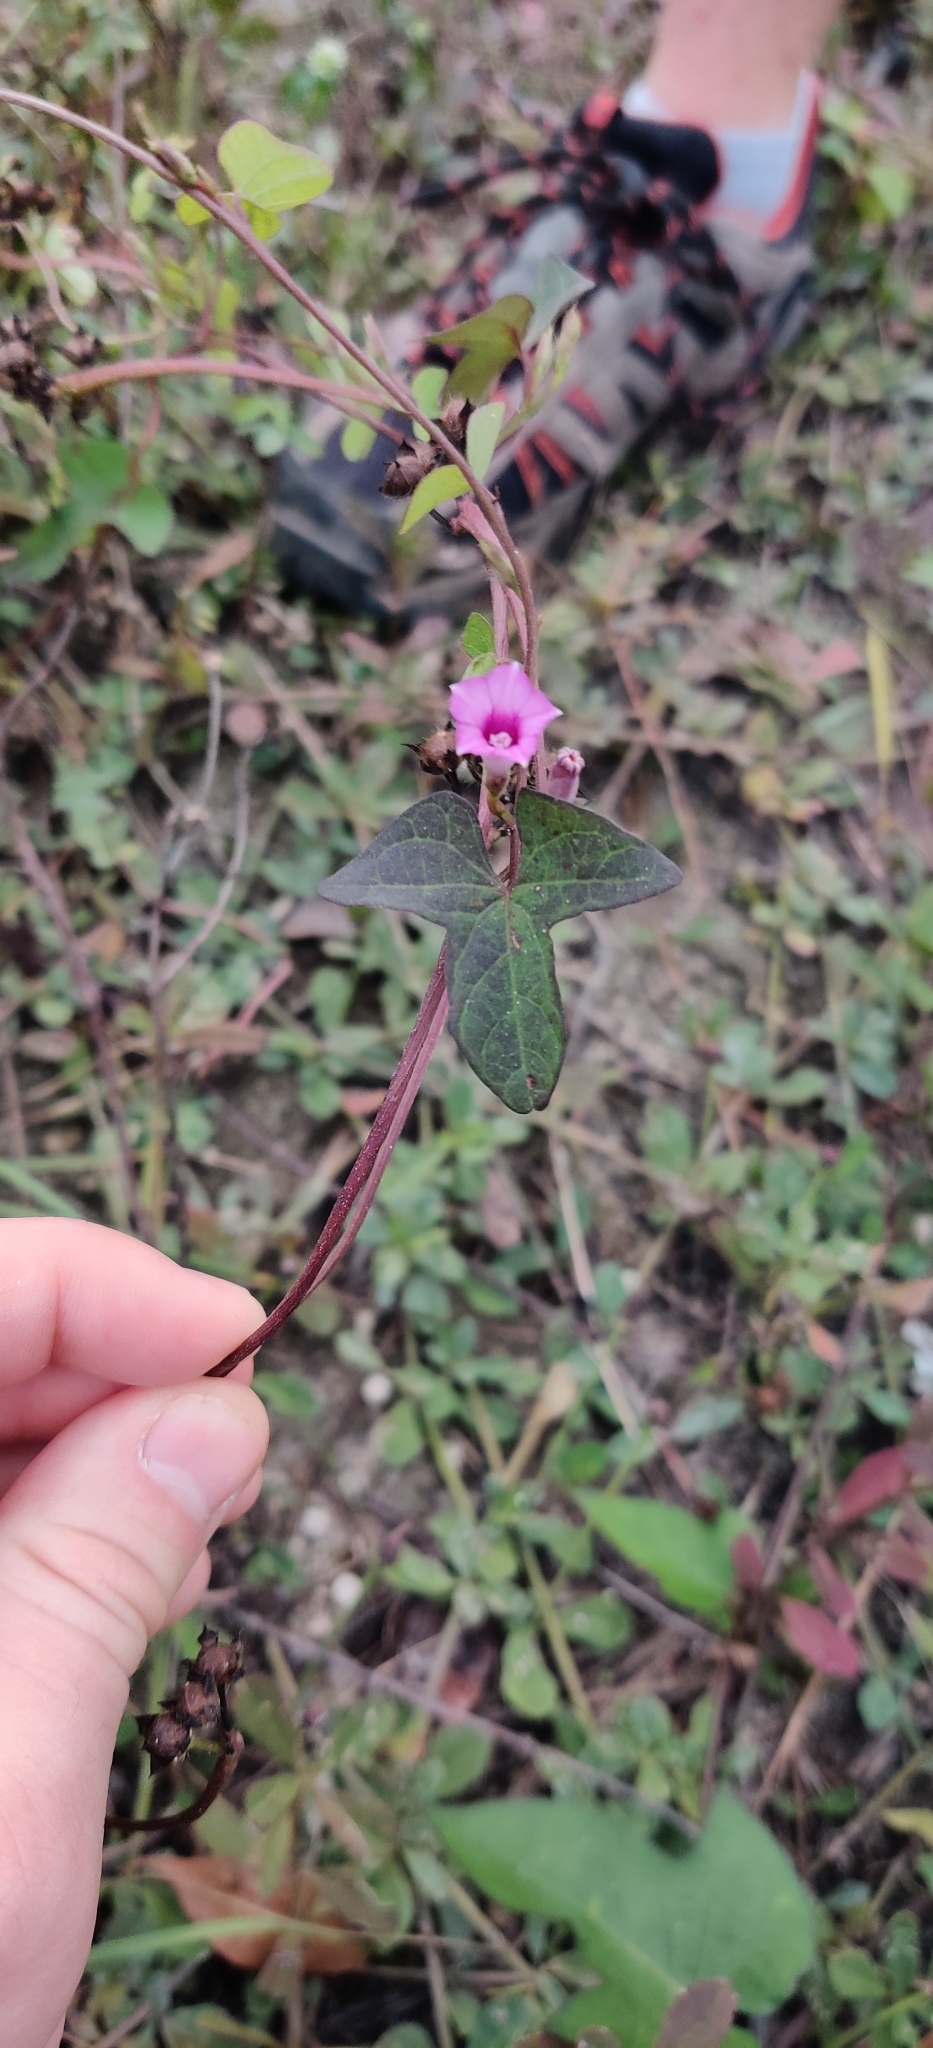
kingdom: Plantae
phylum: Tracheophyta
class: Magnoliopsida
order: Solanales
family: Convolvulaceae
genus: Ipomoea
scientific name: Ipomoea triloba
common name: Little-bell
